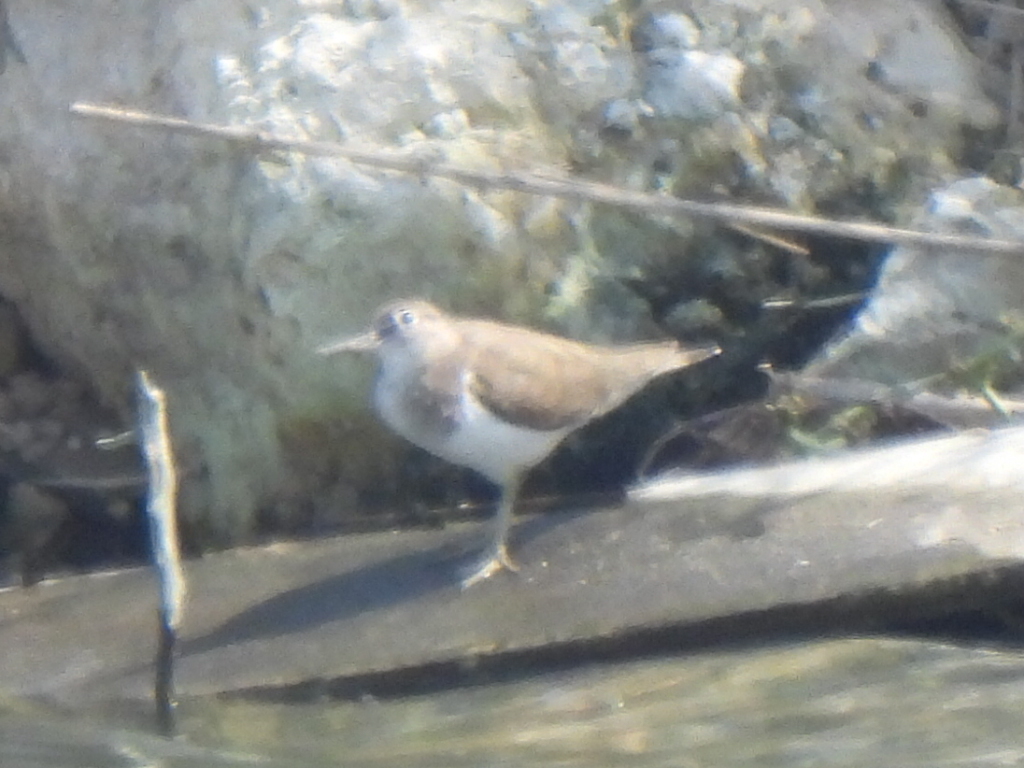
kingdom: Animalia
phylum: Chordata
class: Aves
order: Charadriiformes
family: Scolopacidae
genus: Actitis
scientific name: Actitis hypoleucos
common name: Common sandpiper
